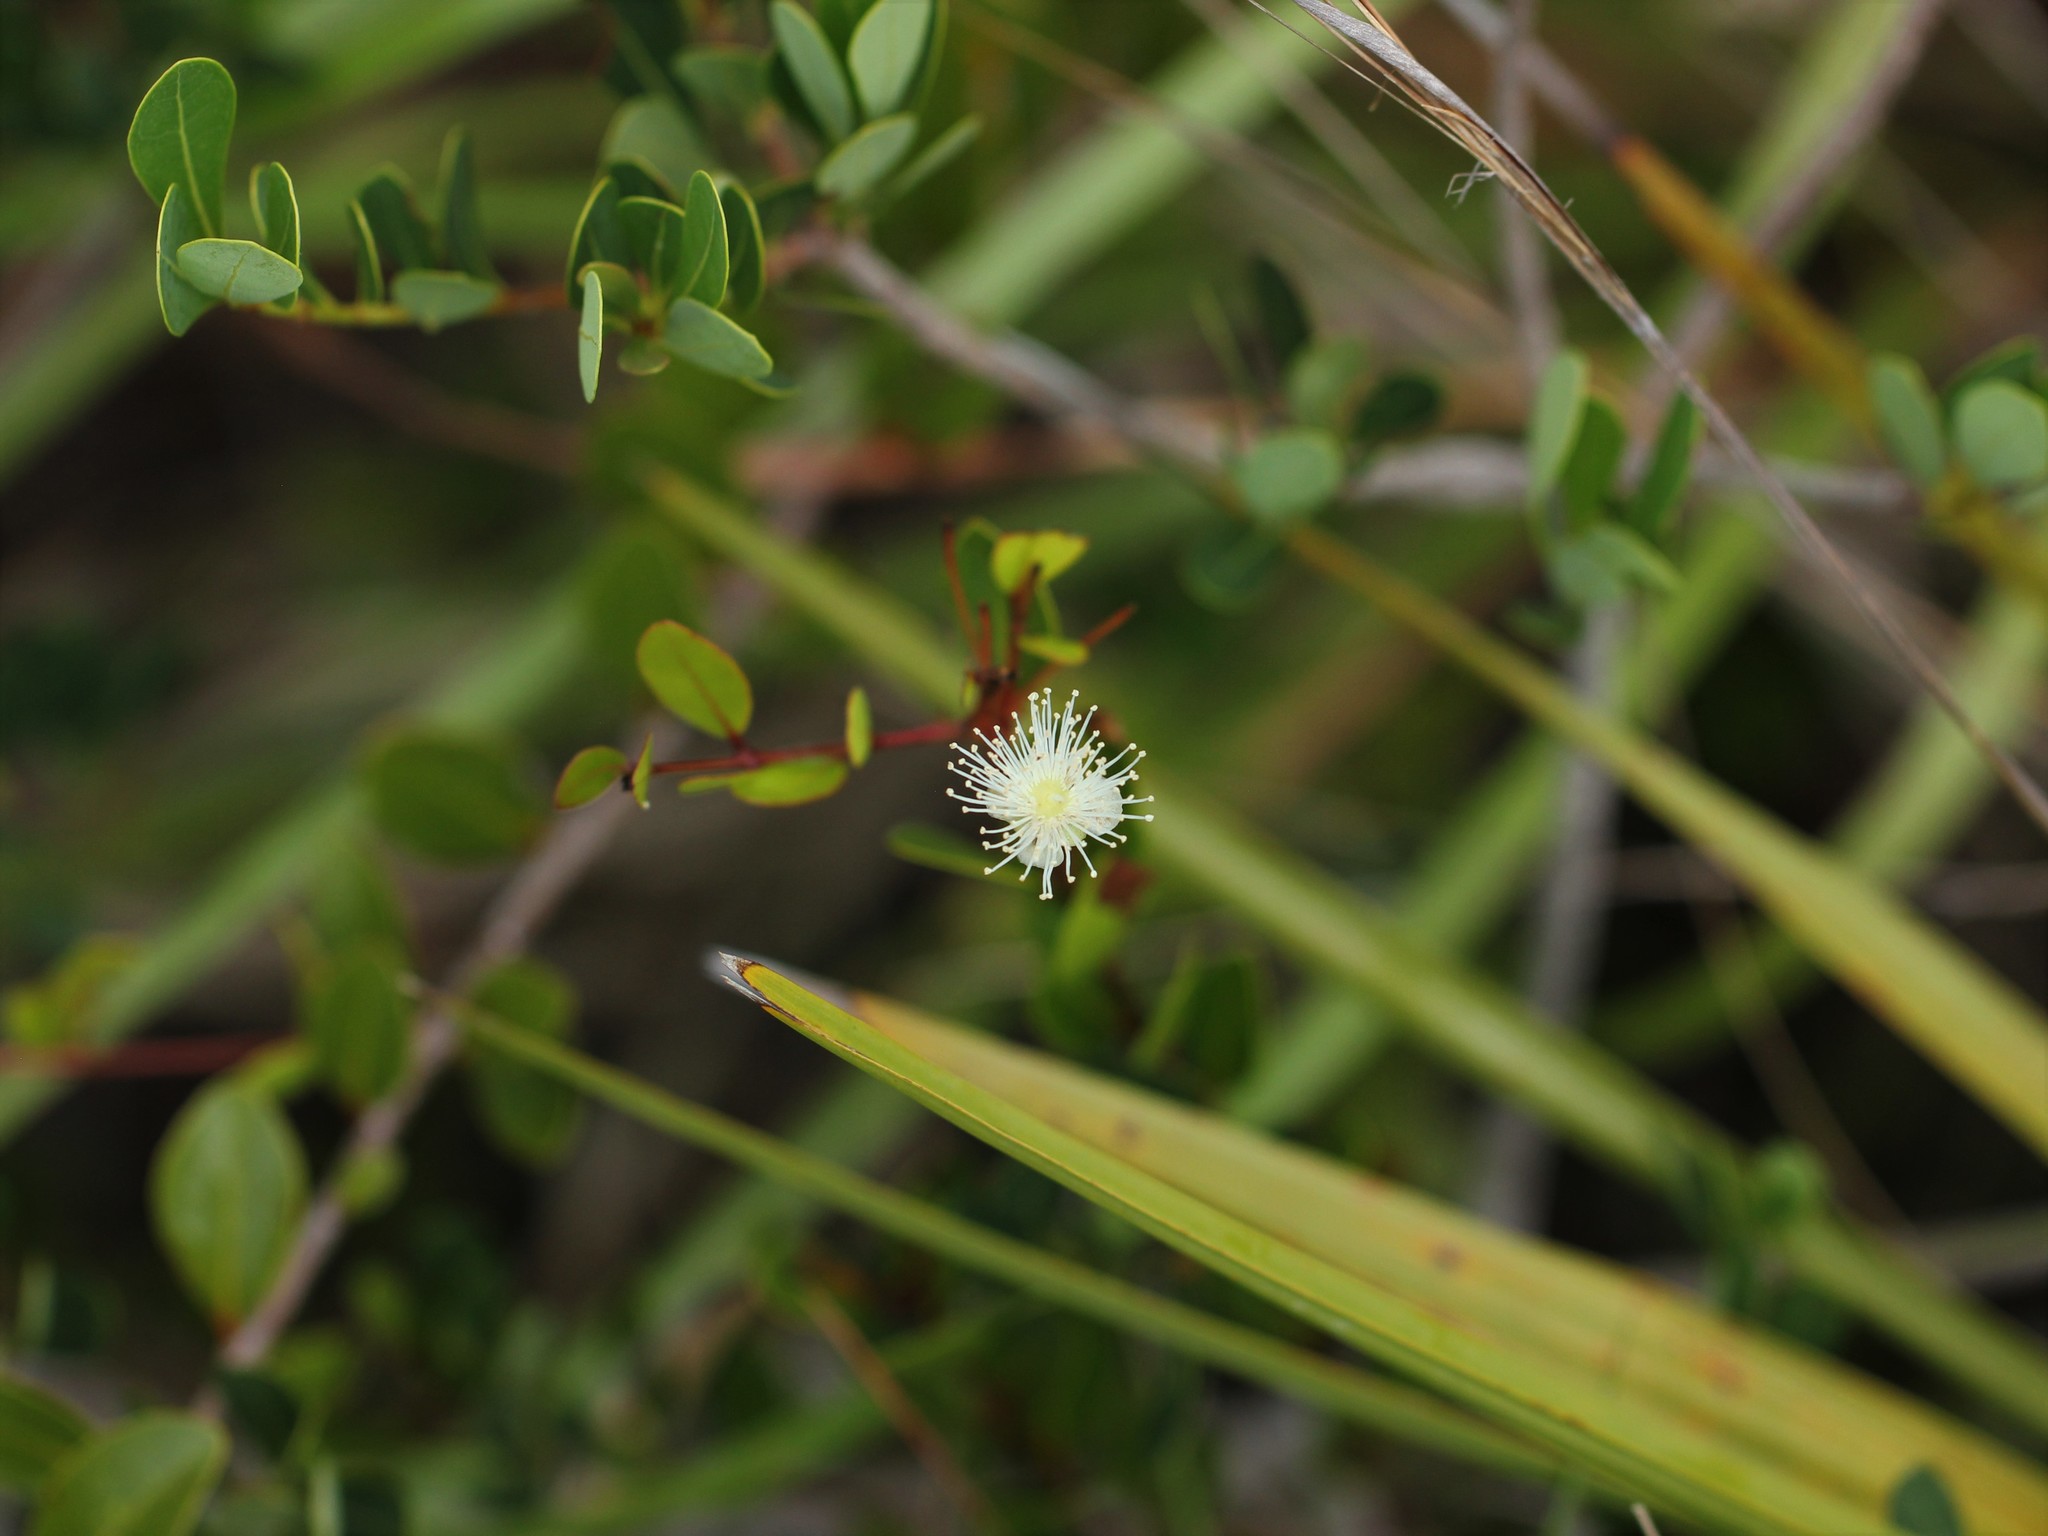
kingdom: Plantae
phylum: Tracheophyta
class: Magnoliopsida
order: Myrtales
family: Myrtaceae
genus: Mosiera
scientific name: Mosiera longipes
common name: Bahama stopper
